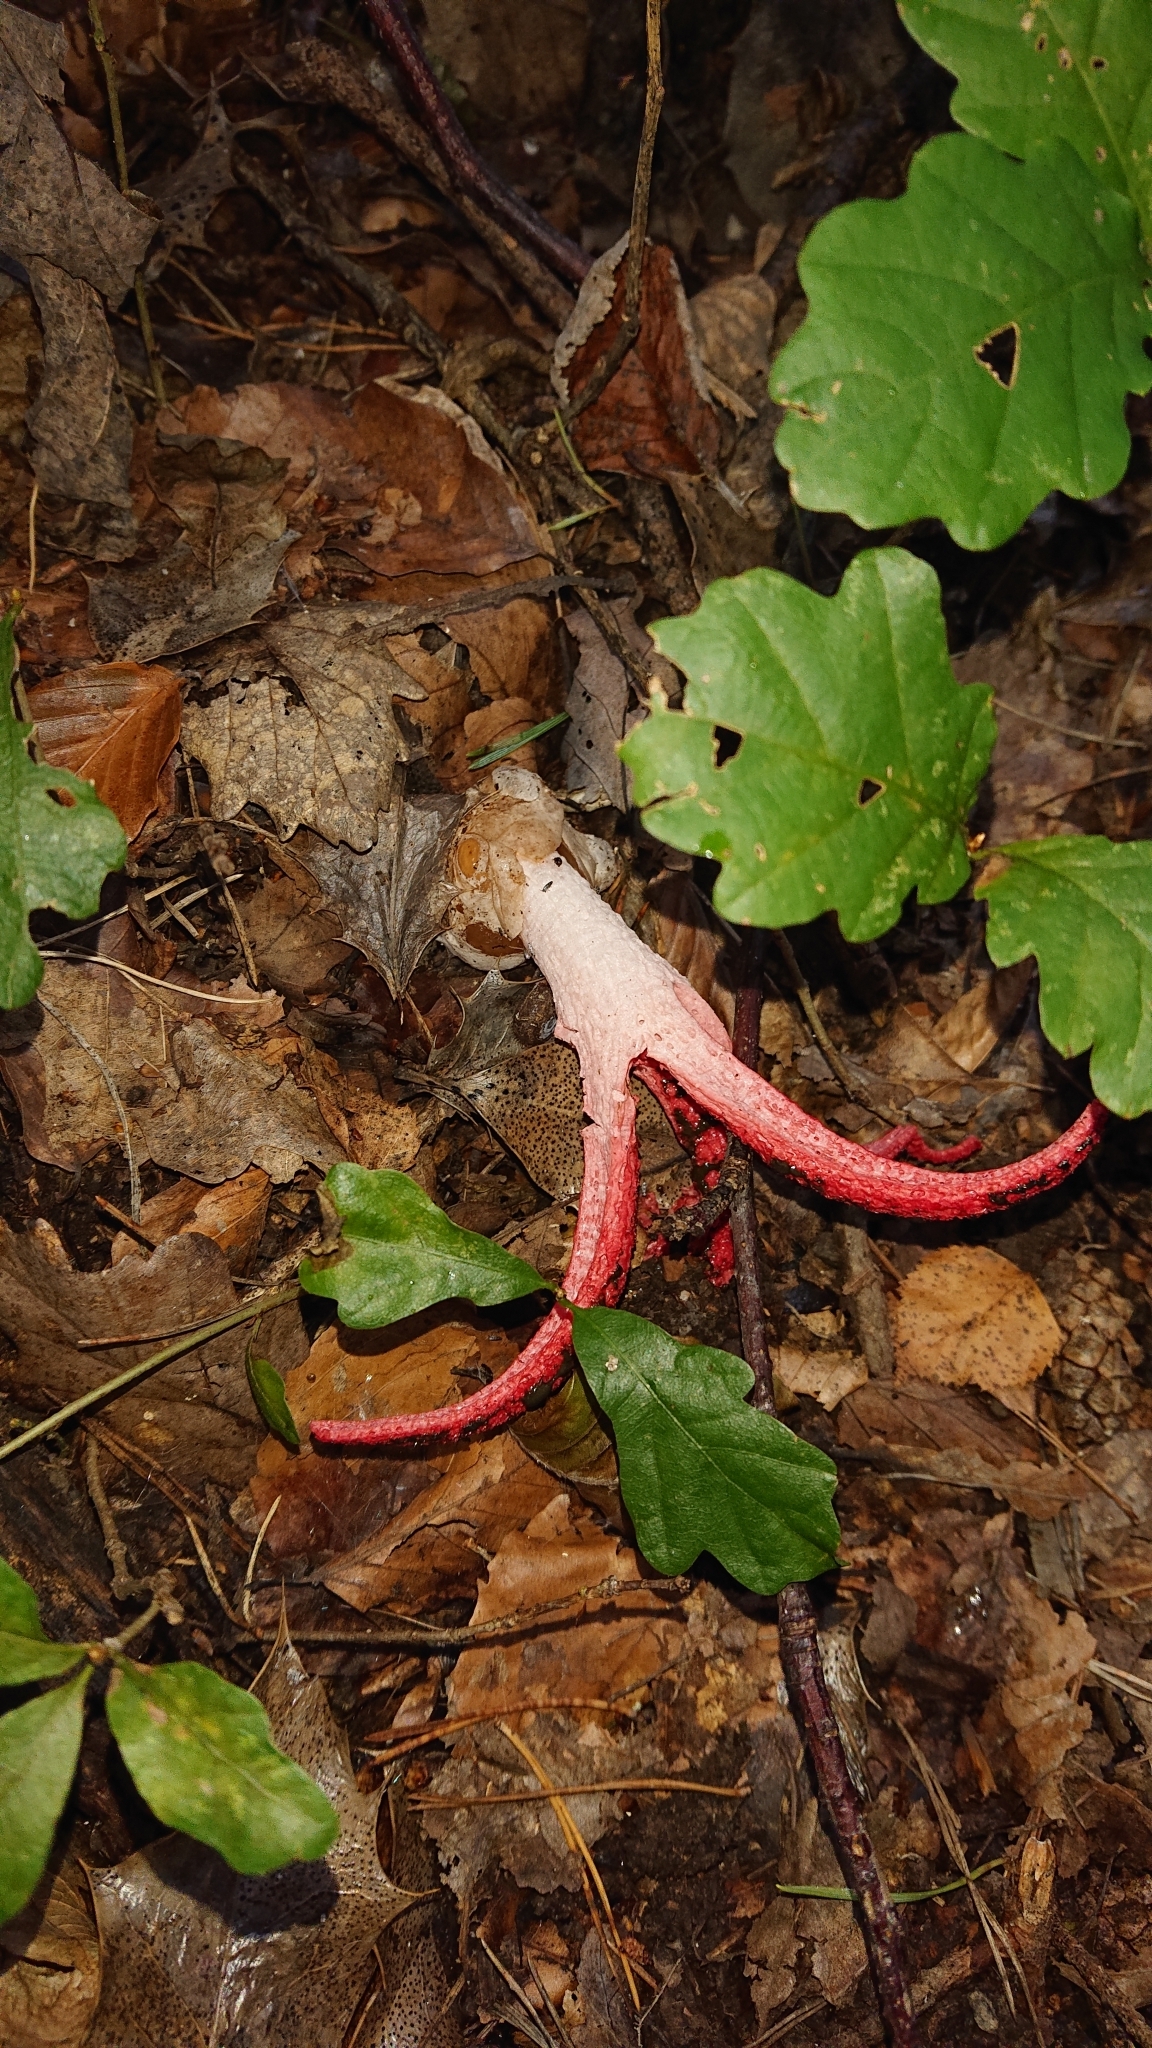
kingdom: Fungi
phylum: Basidiomycota
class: Agaricomycetes
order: Phallales
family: Phallaceae
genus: Clathrus
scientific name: Clathrus archeri
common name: Devil's fingers
